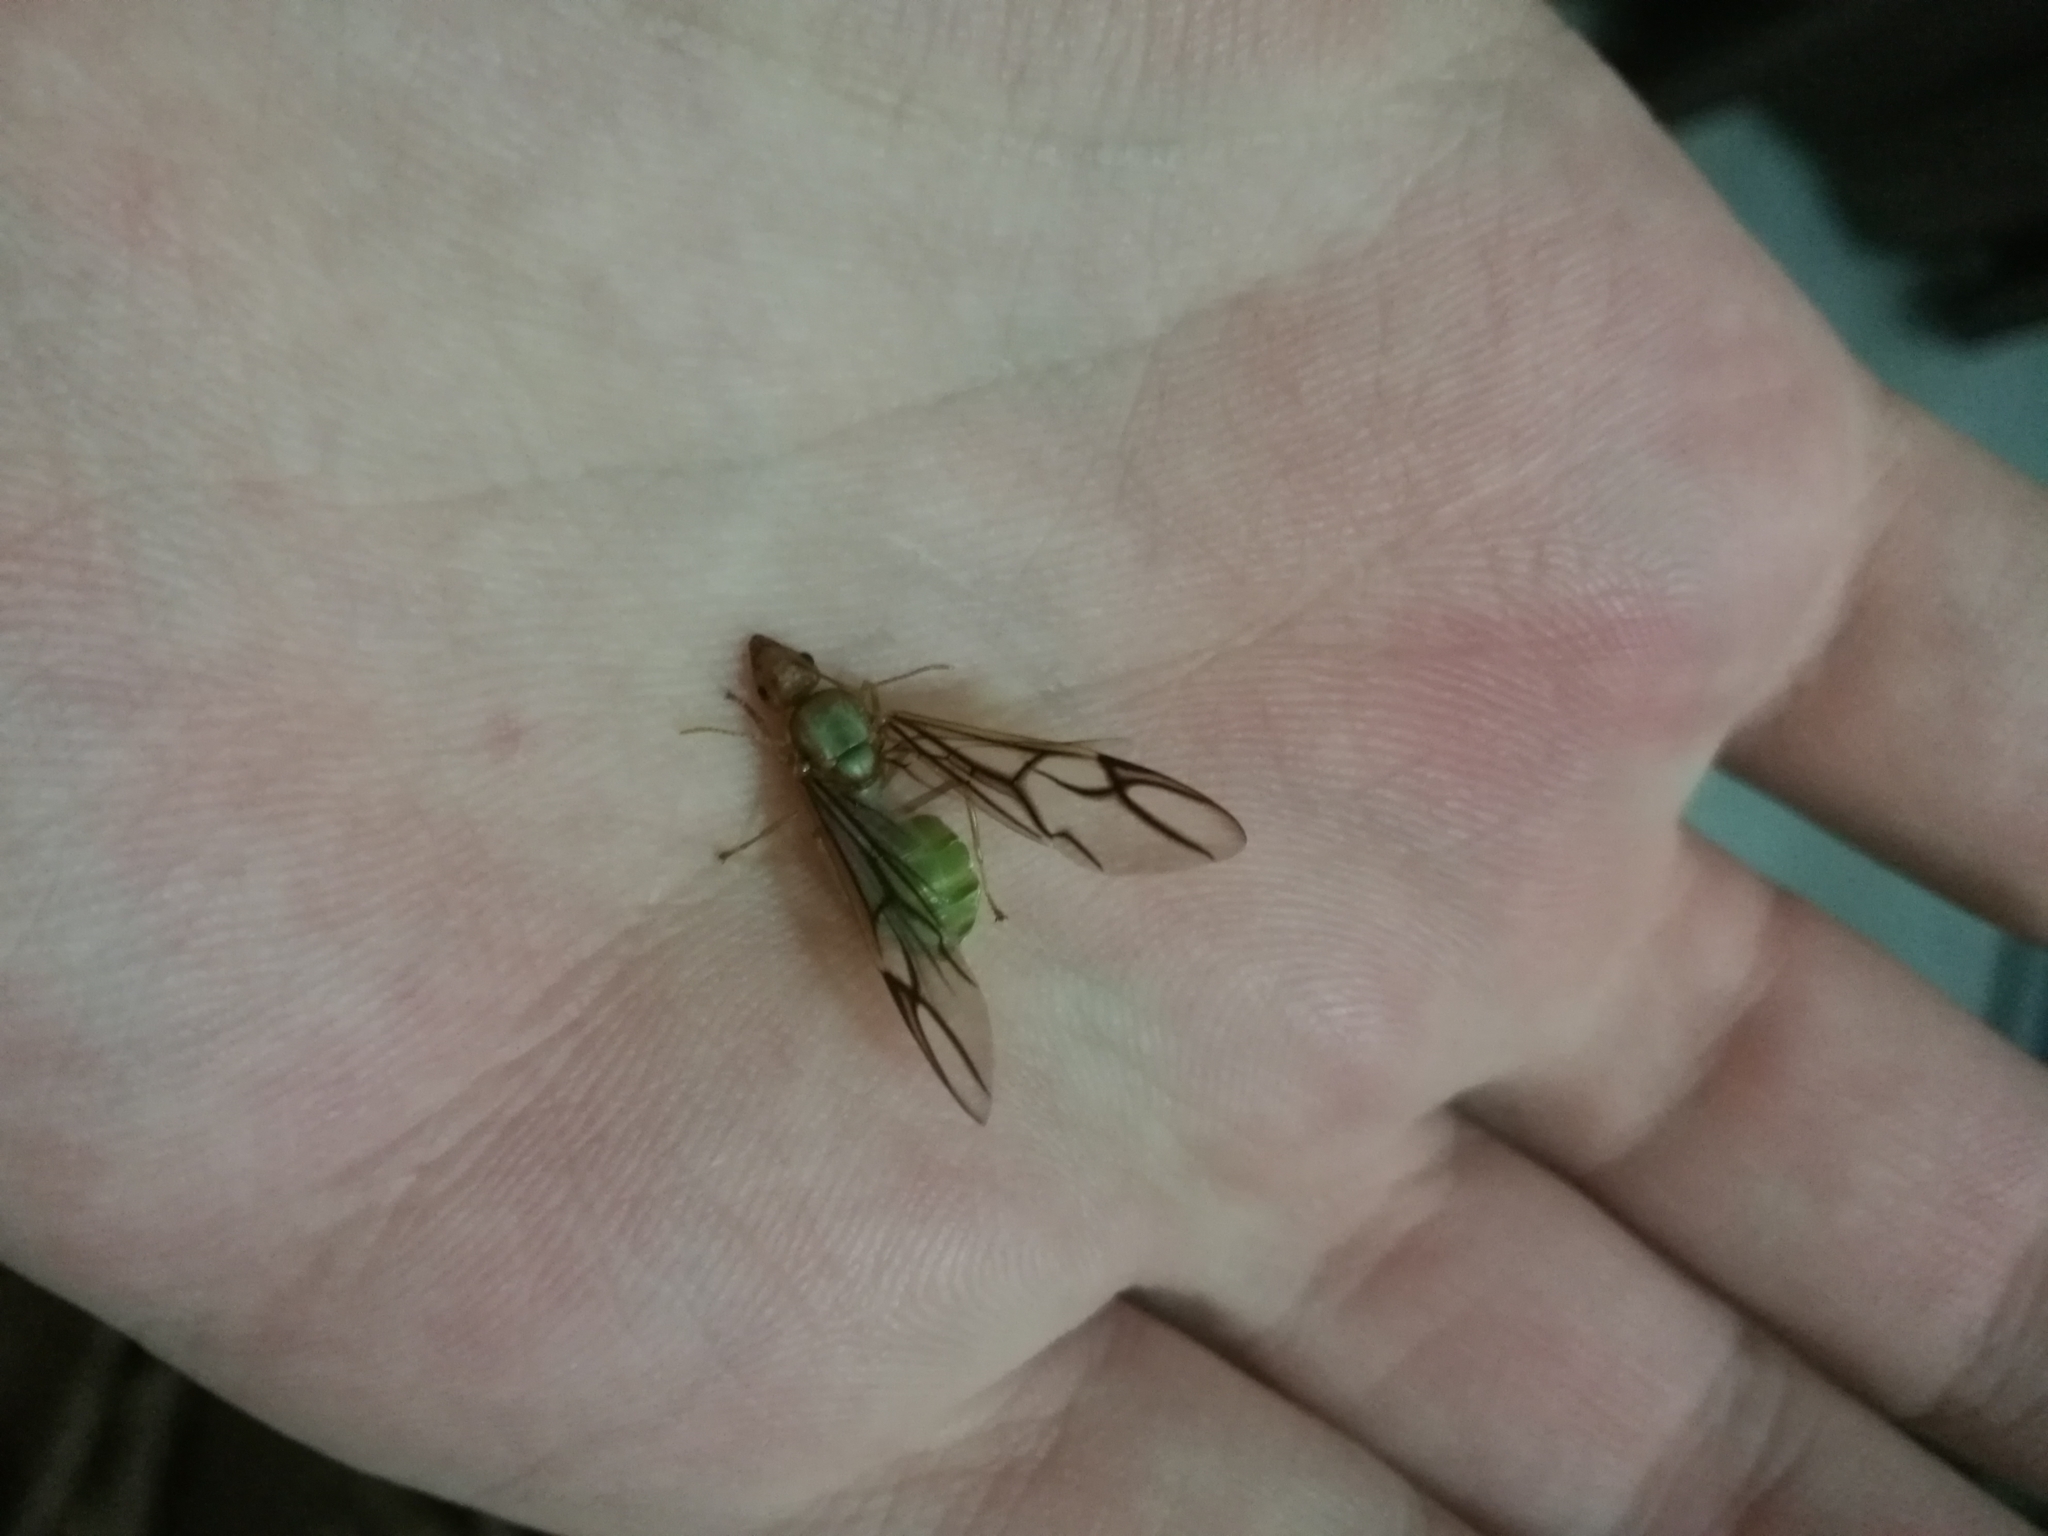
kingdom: Animalia
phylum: Arthropoda
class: Insecta
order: Hymenoptera
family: Formicidae
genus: Oecophylla
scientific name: Oecophylla longinoda
